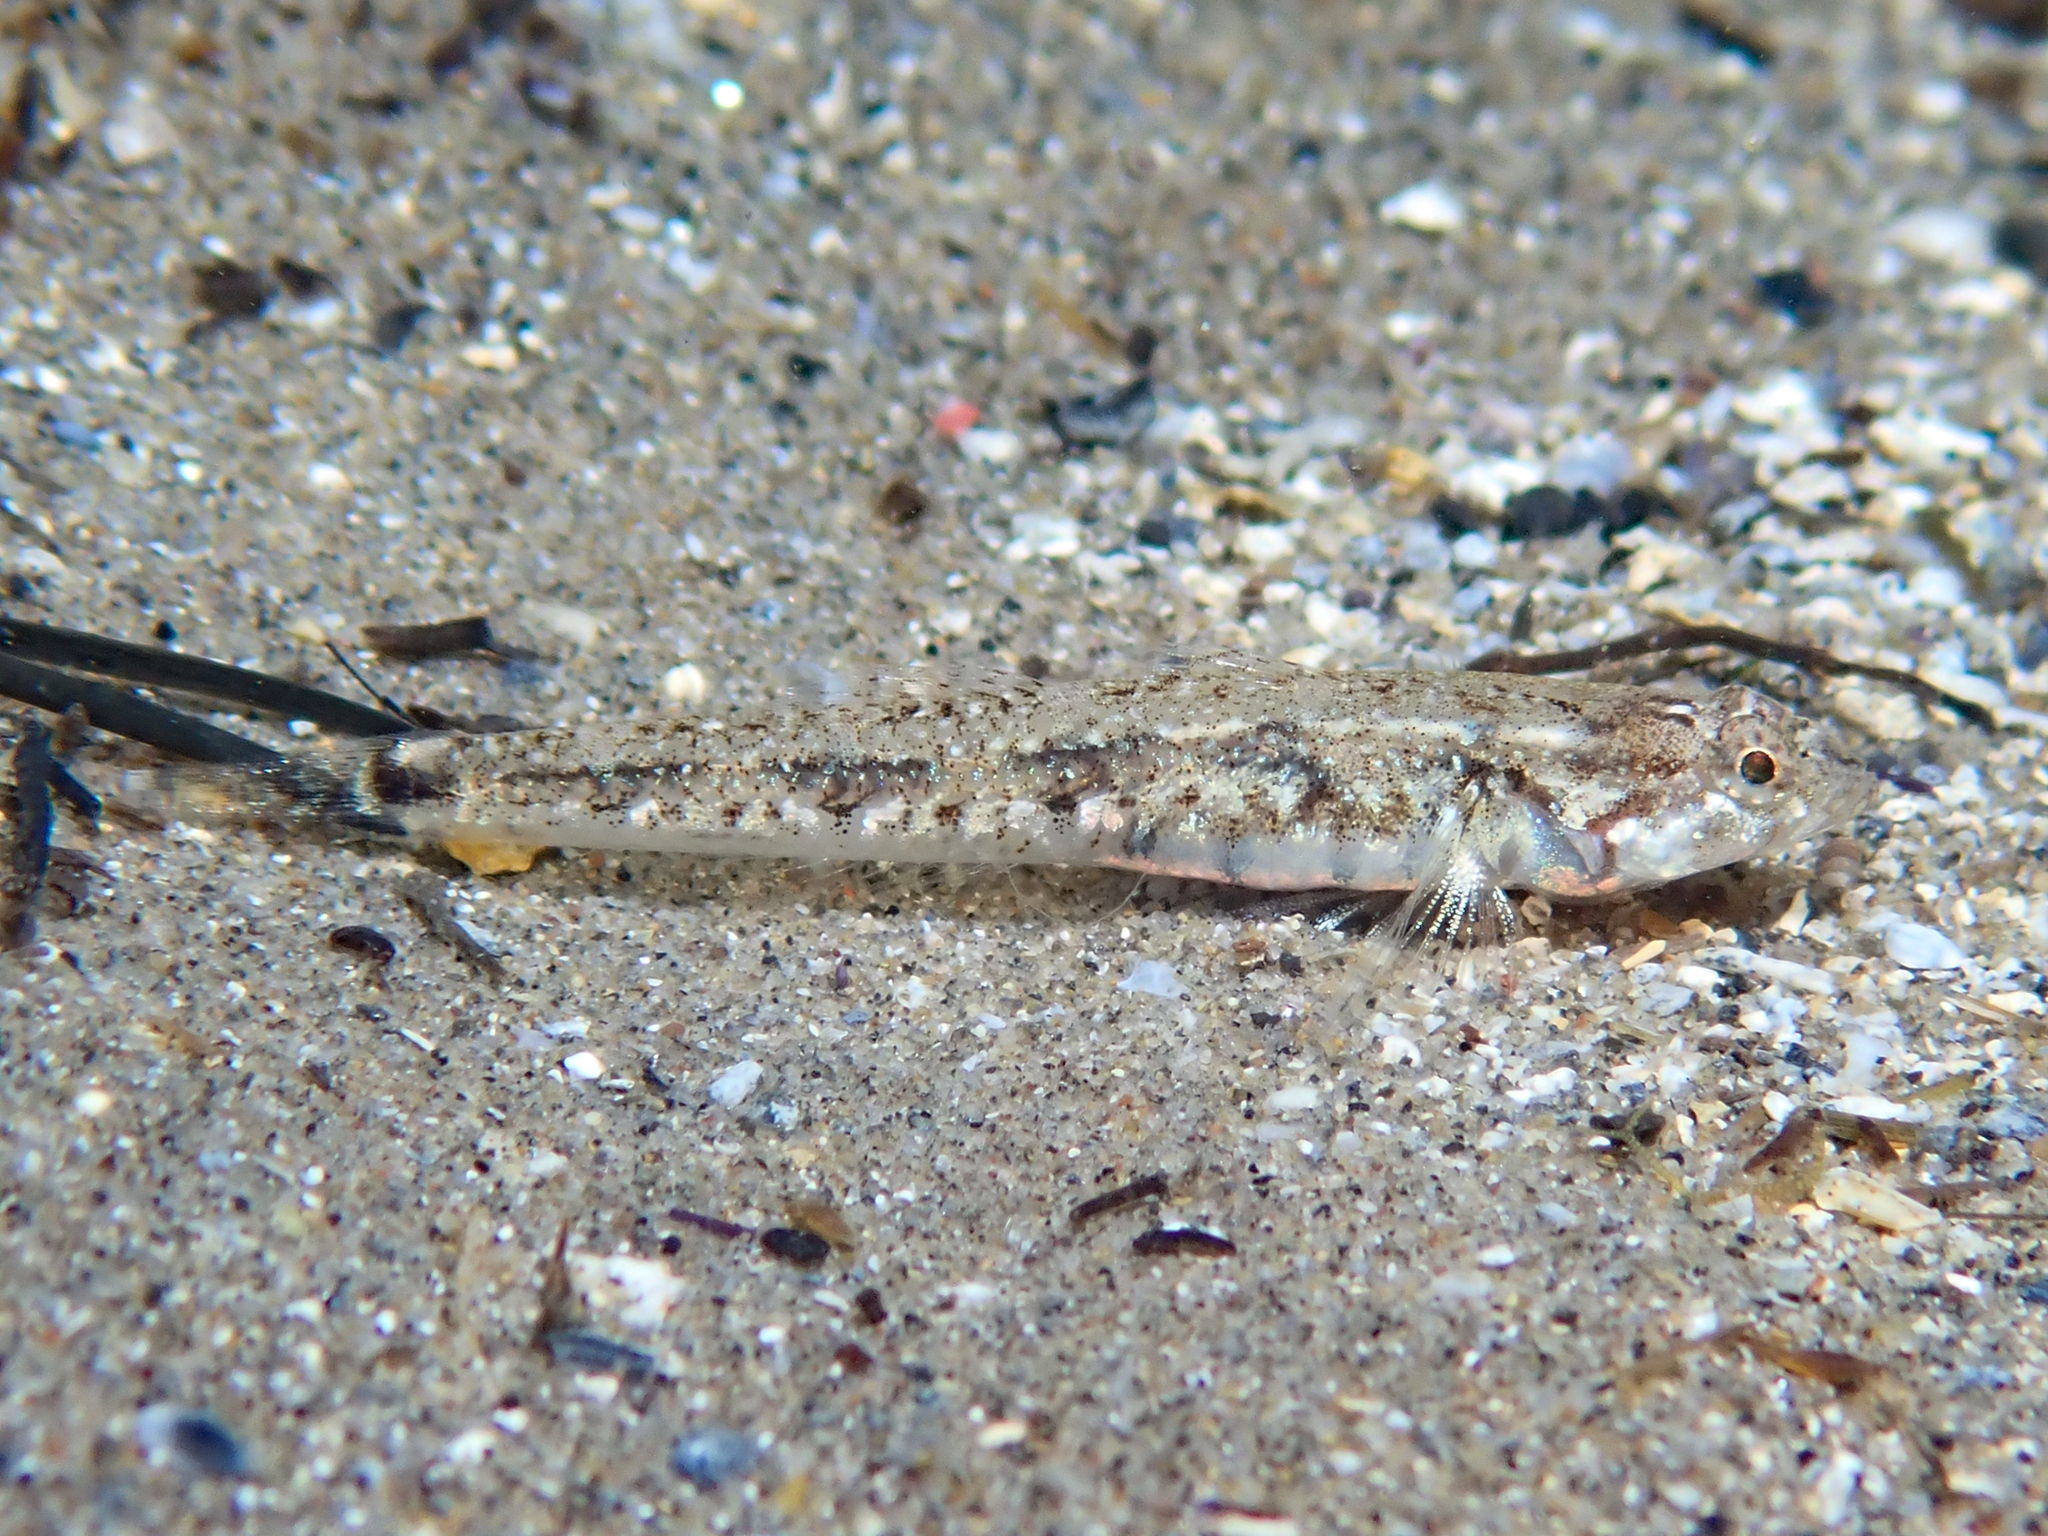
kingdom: Animalia
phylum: Chordata
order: Perciformes
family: Gobiidae
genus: Pomatoschistus
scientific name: Pomatoschistus bathi
